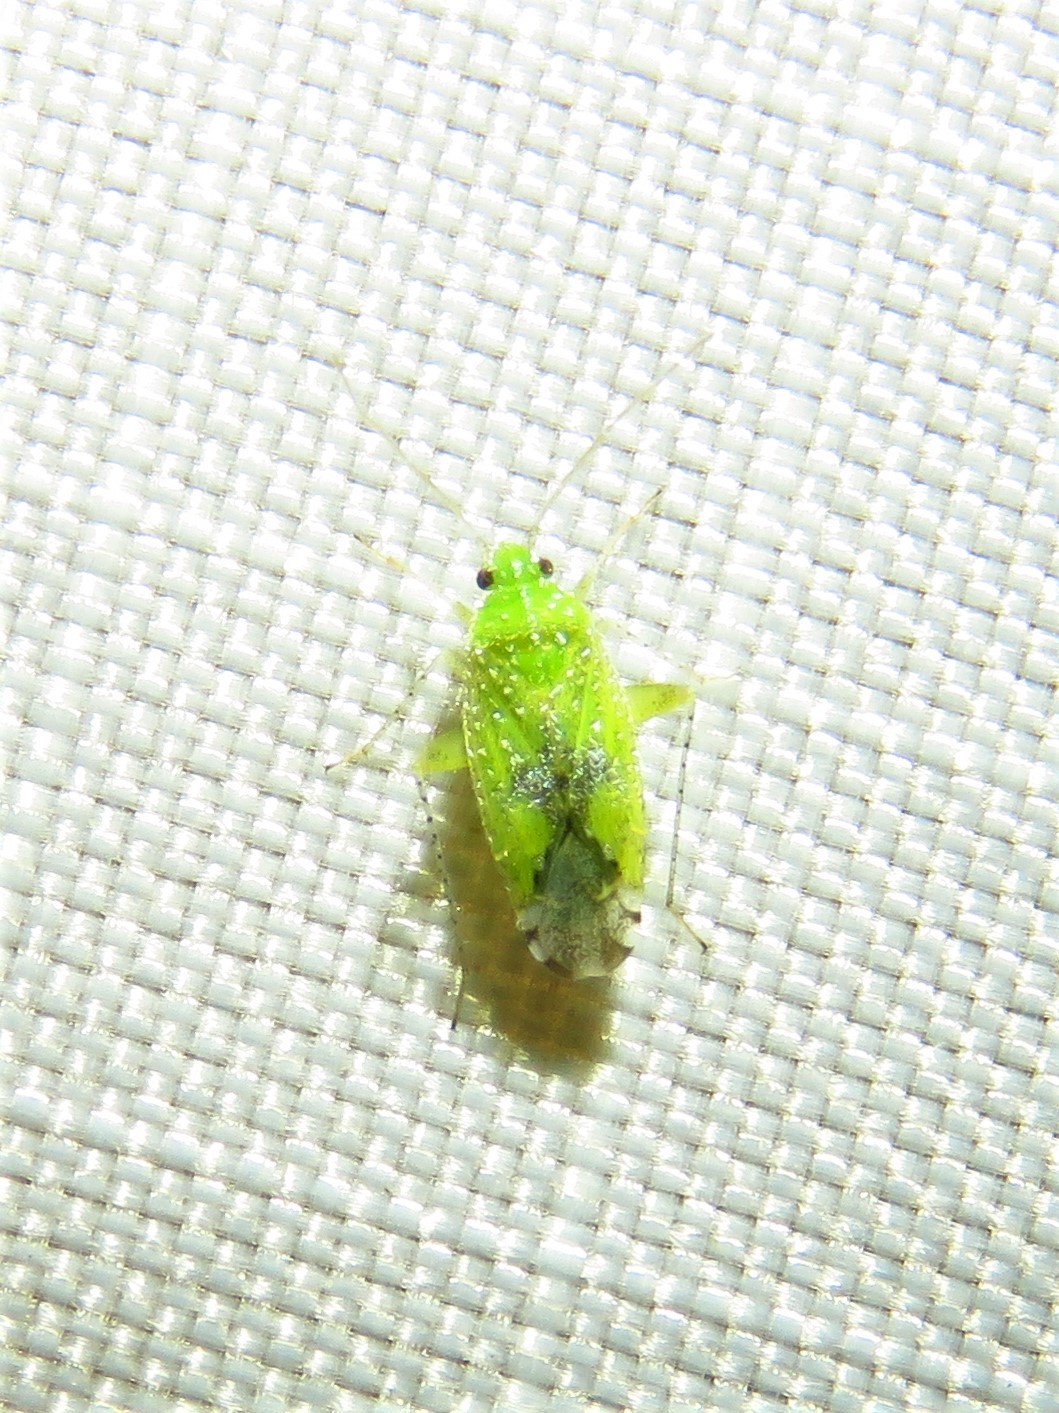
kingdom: Animalia
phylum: Arthropoda
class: Insecta
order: Hemiptera
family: Miridae
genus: Keltonia
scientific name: Keltonia tuckeri
